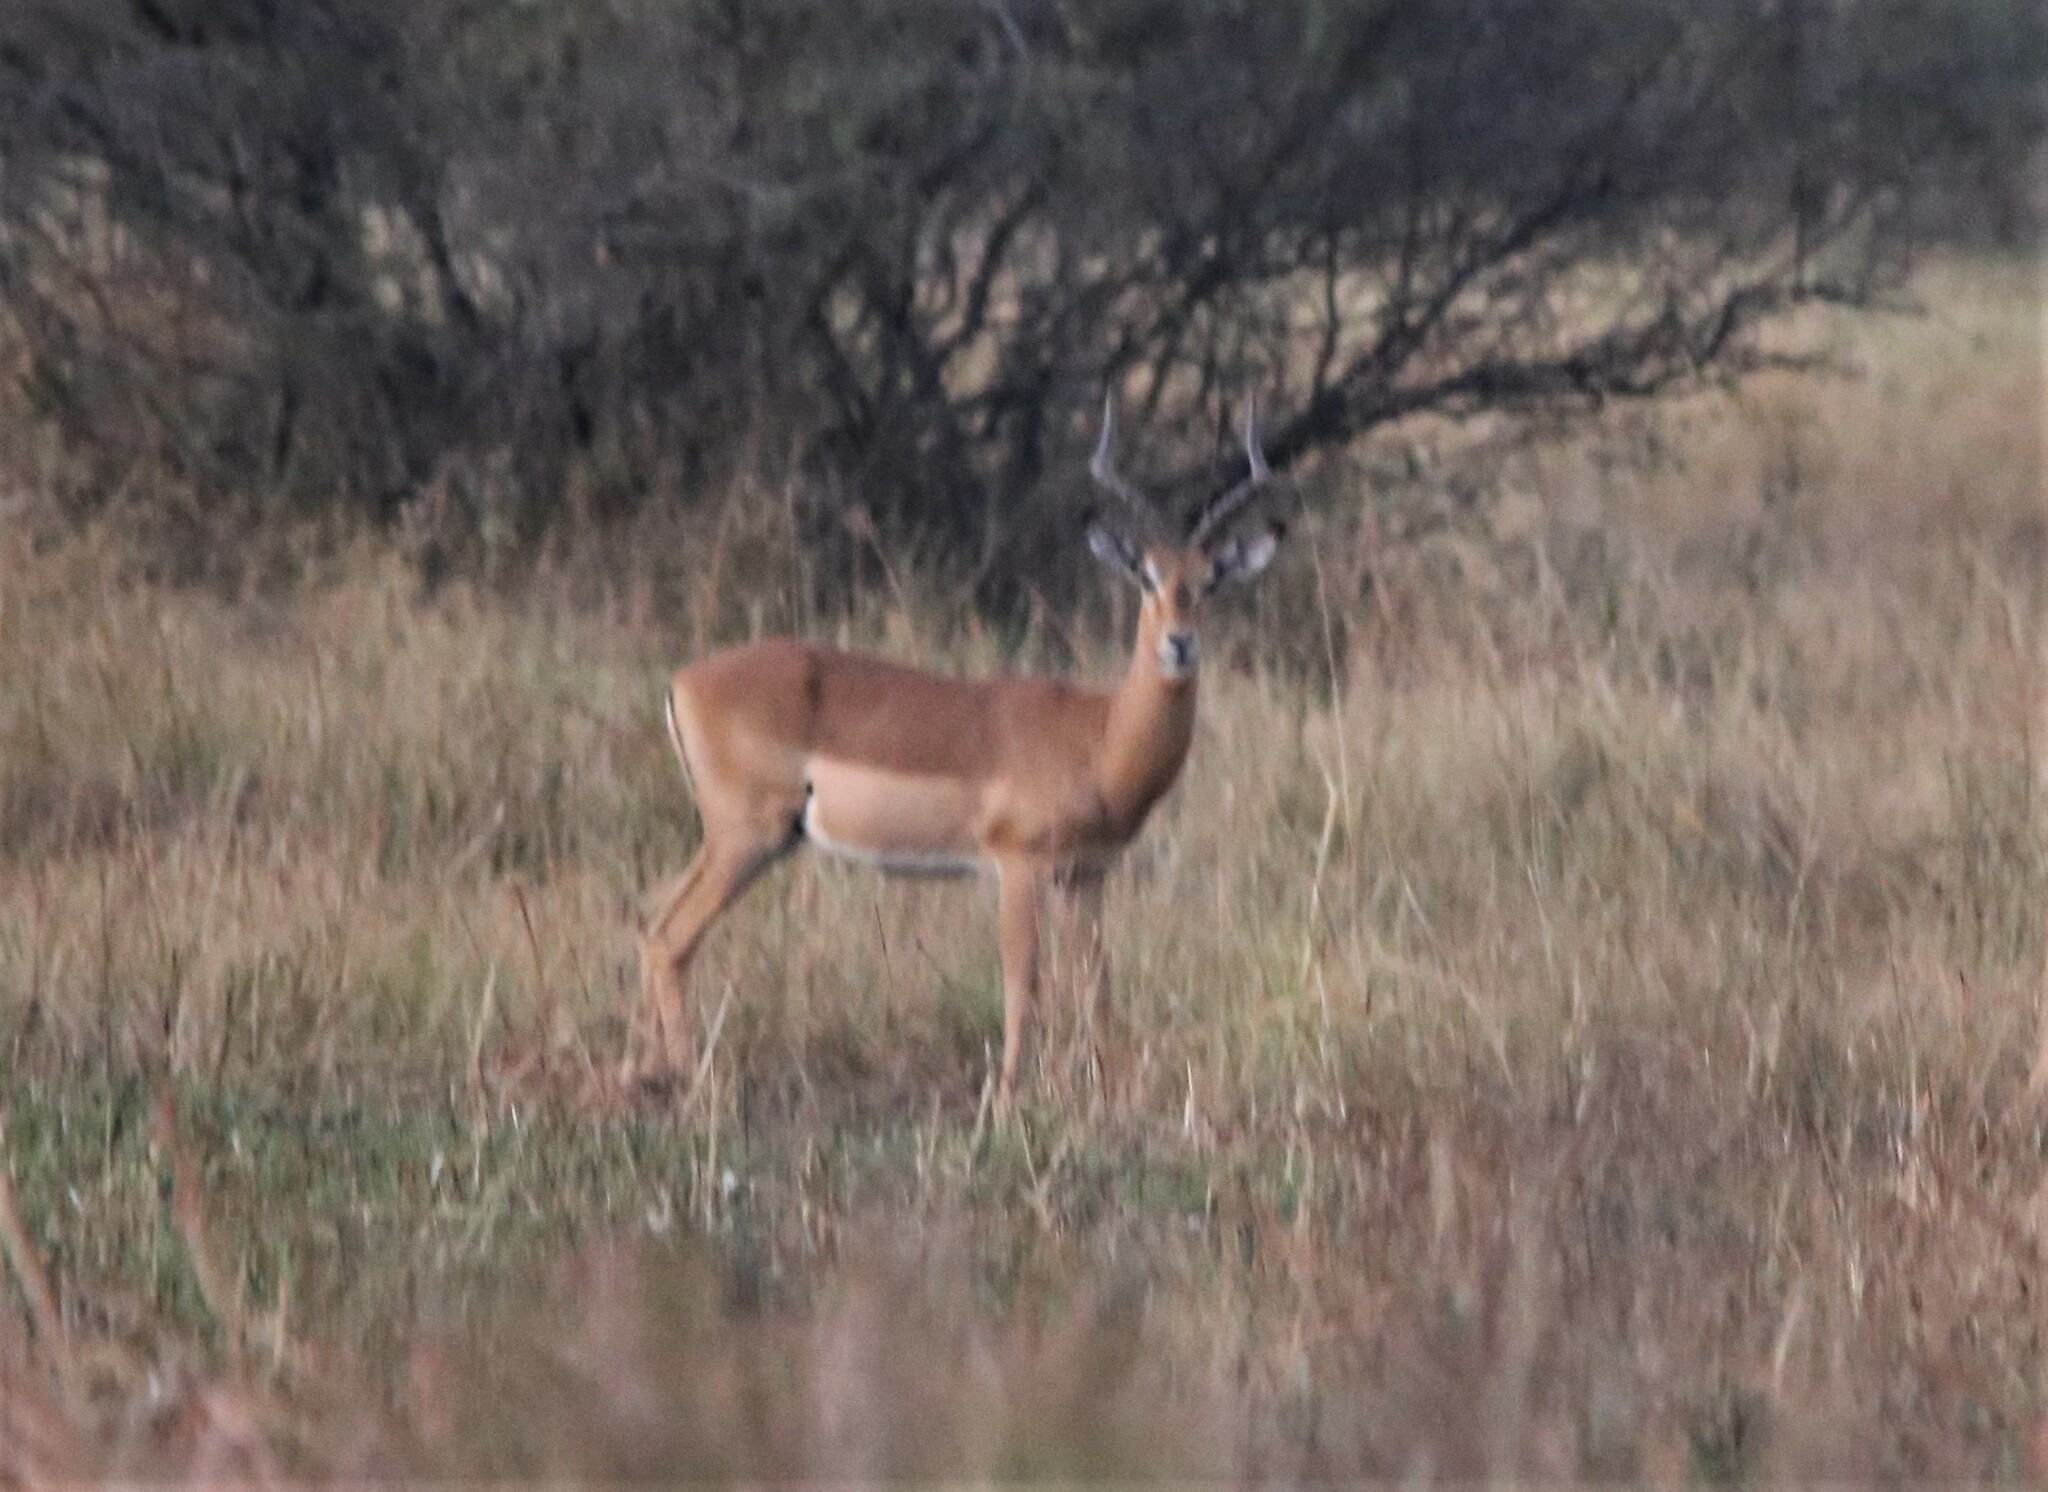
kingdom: Animalia
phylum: Chordata
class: Mammalia
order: Artiodactyla
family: Bovidae
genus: Aepyceros
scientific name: Aepyceros melampus
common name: Impala
